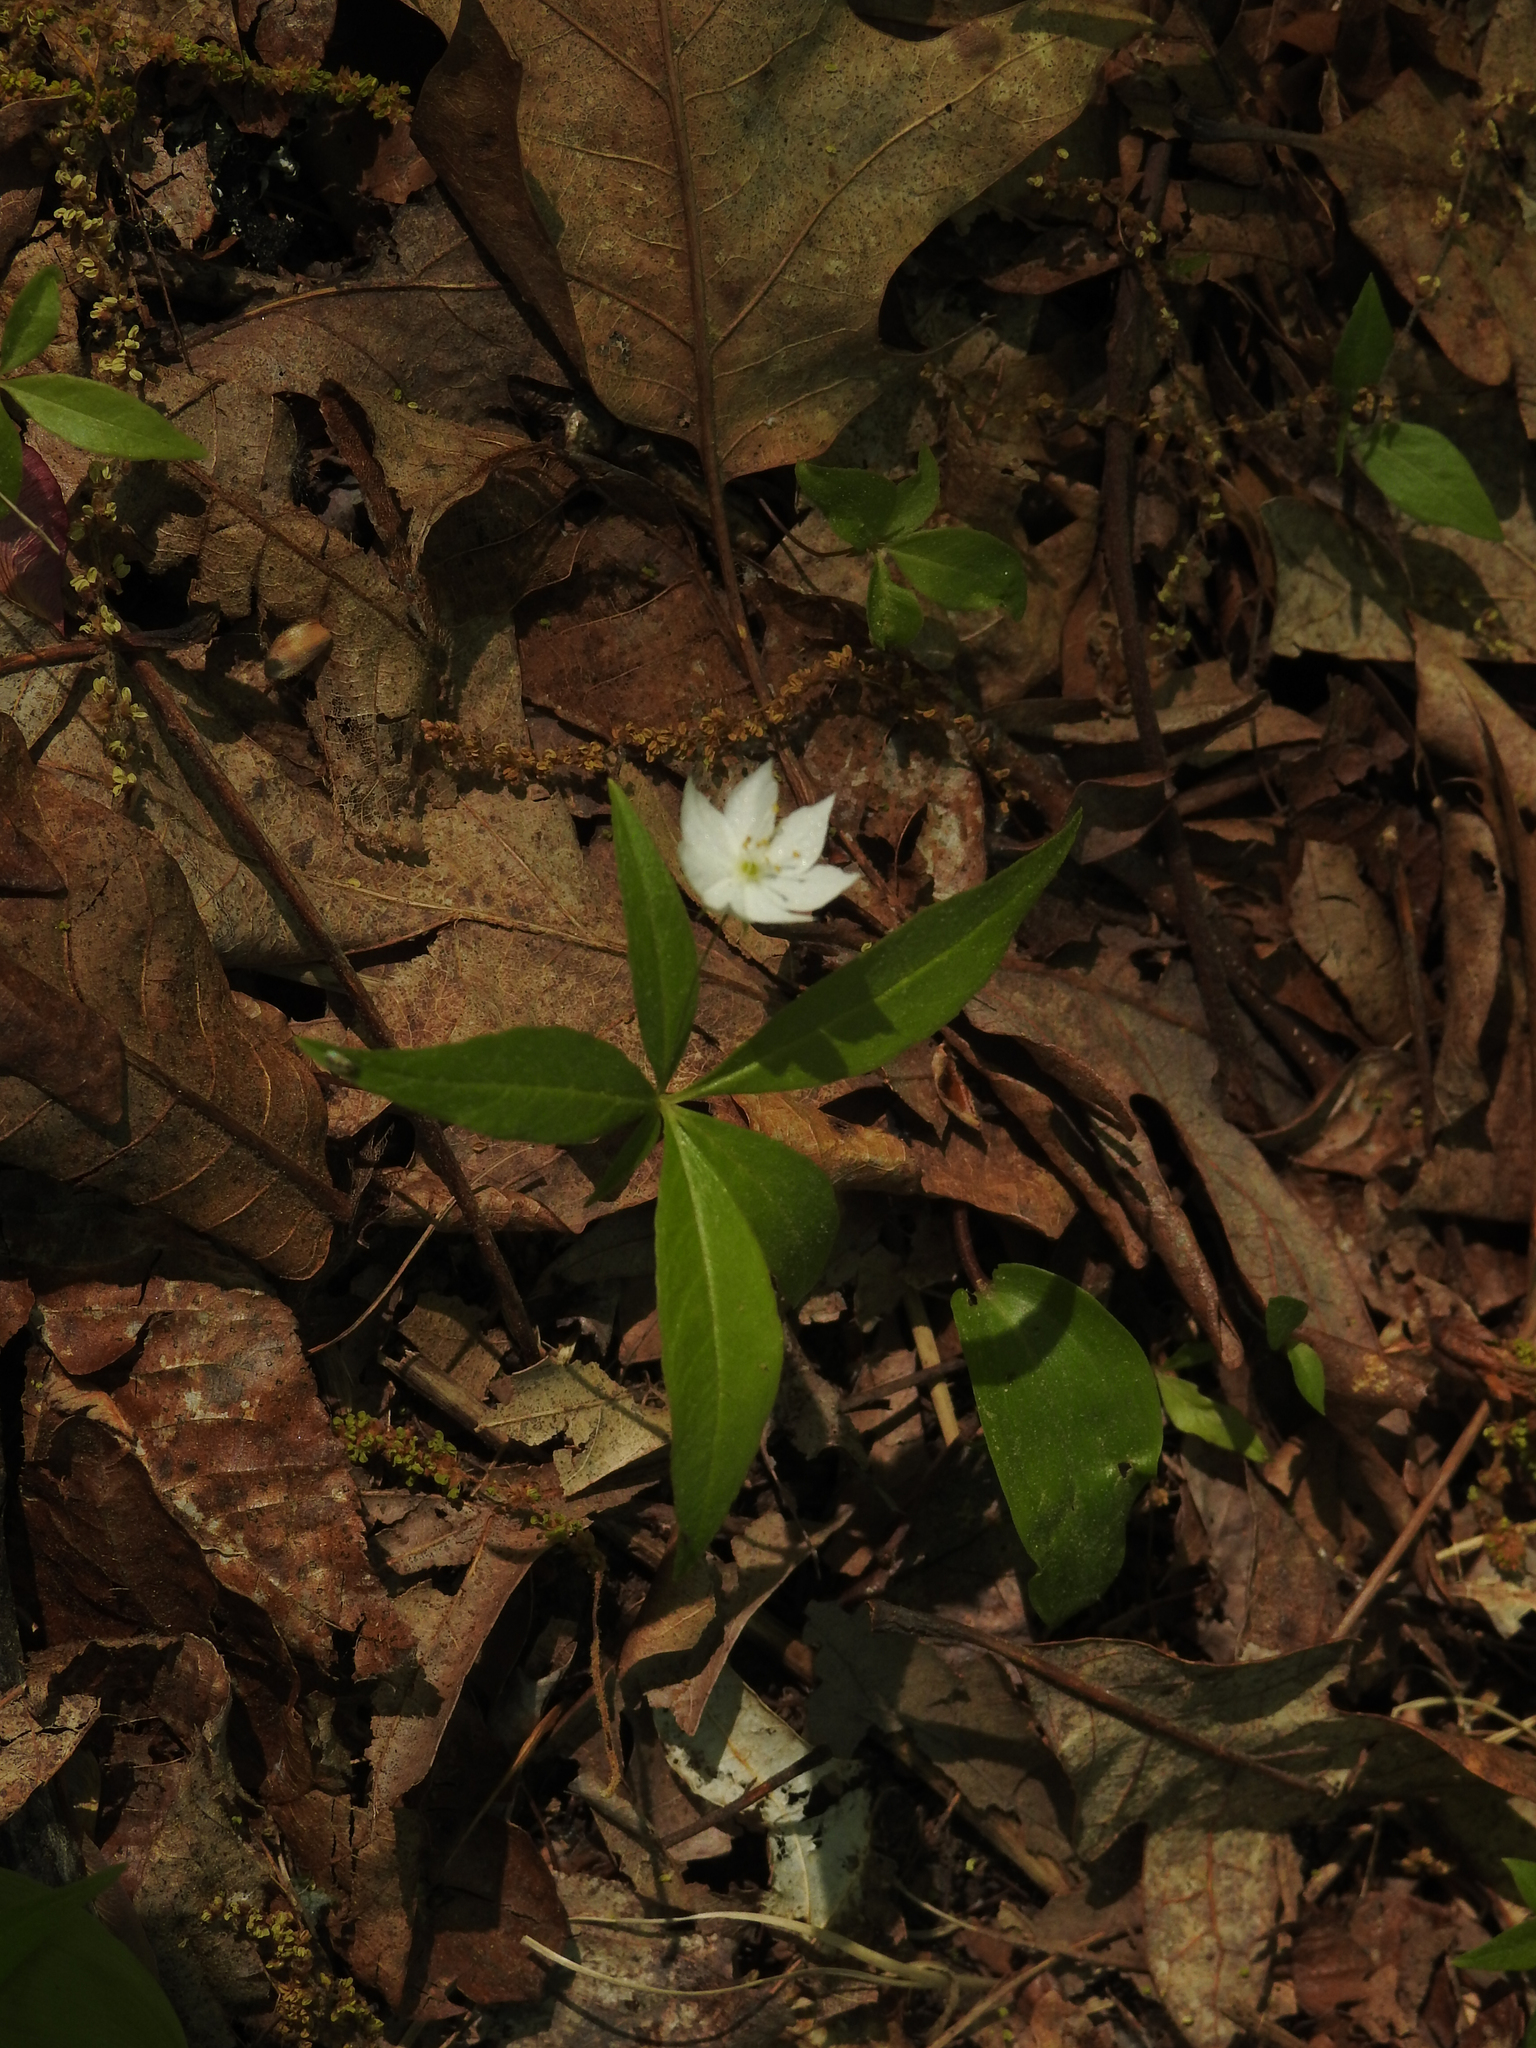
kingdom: Plantae
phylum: Tracheophyta
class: Magnoliopsida
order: Ericales
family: Primulaceae
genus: Lysimachia
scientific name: Lysimachia borealis
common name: American starflower
